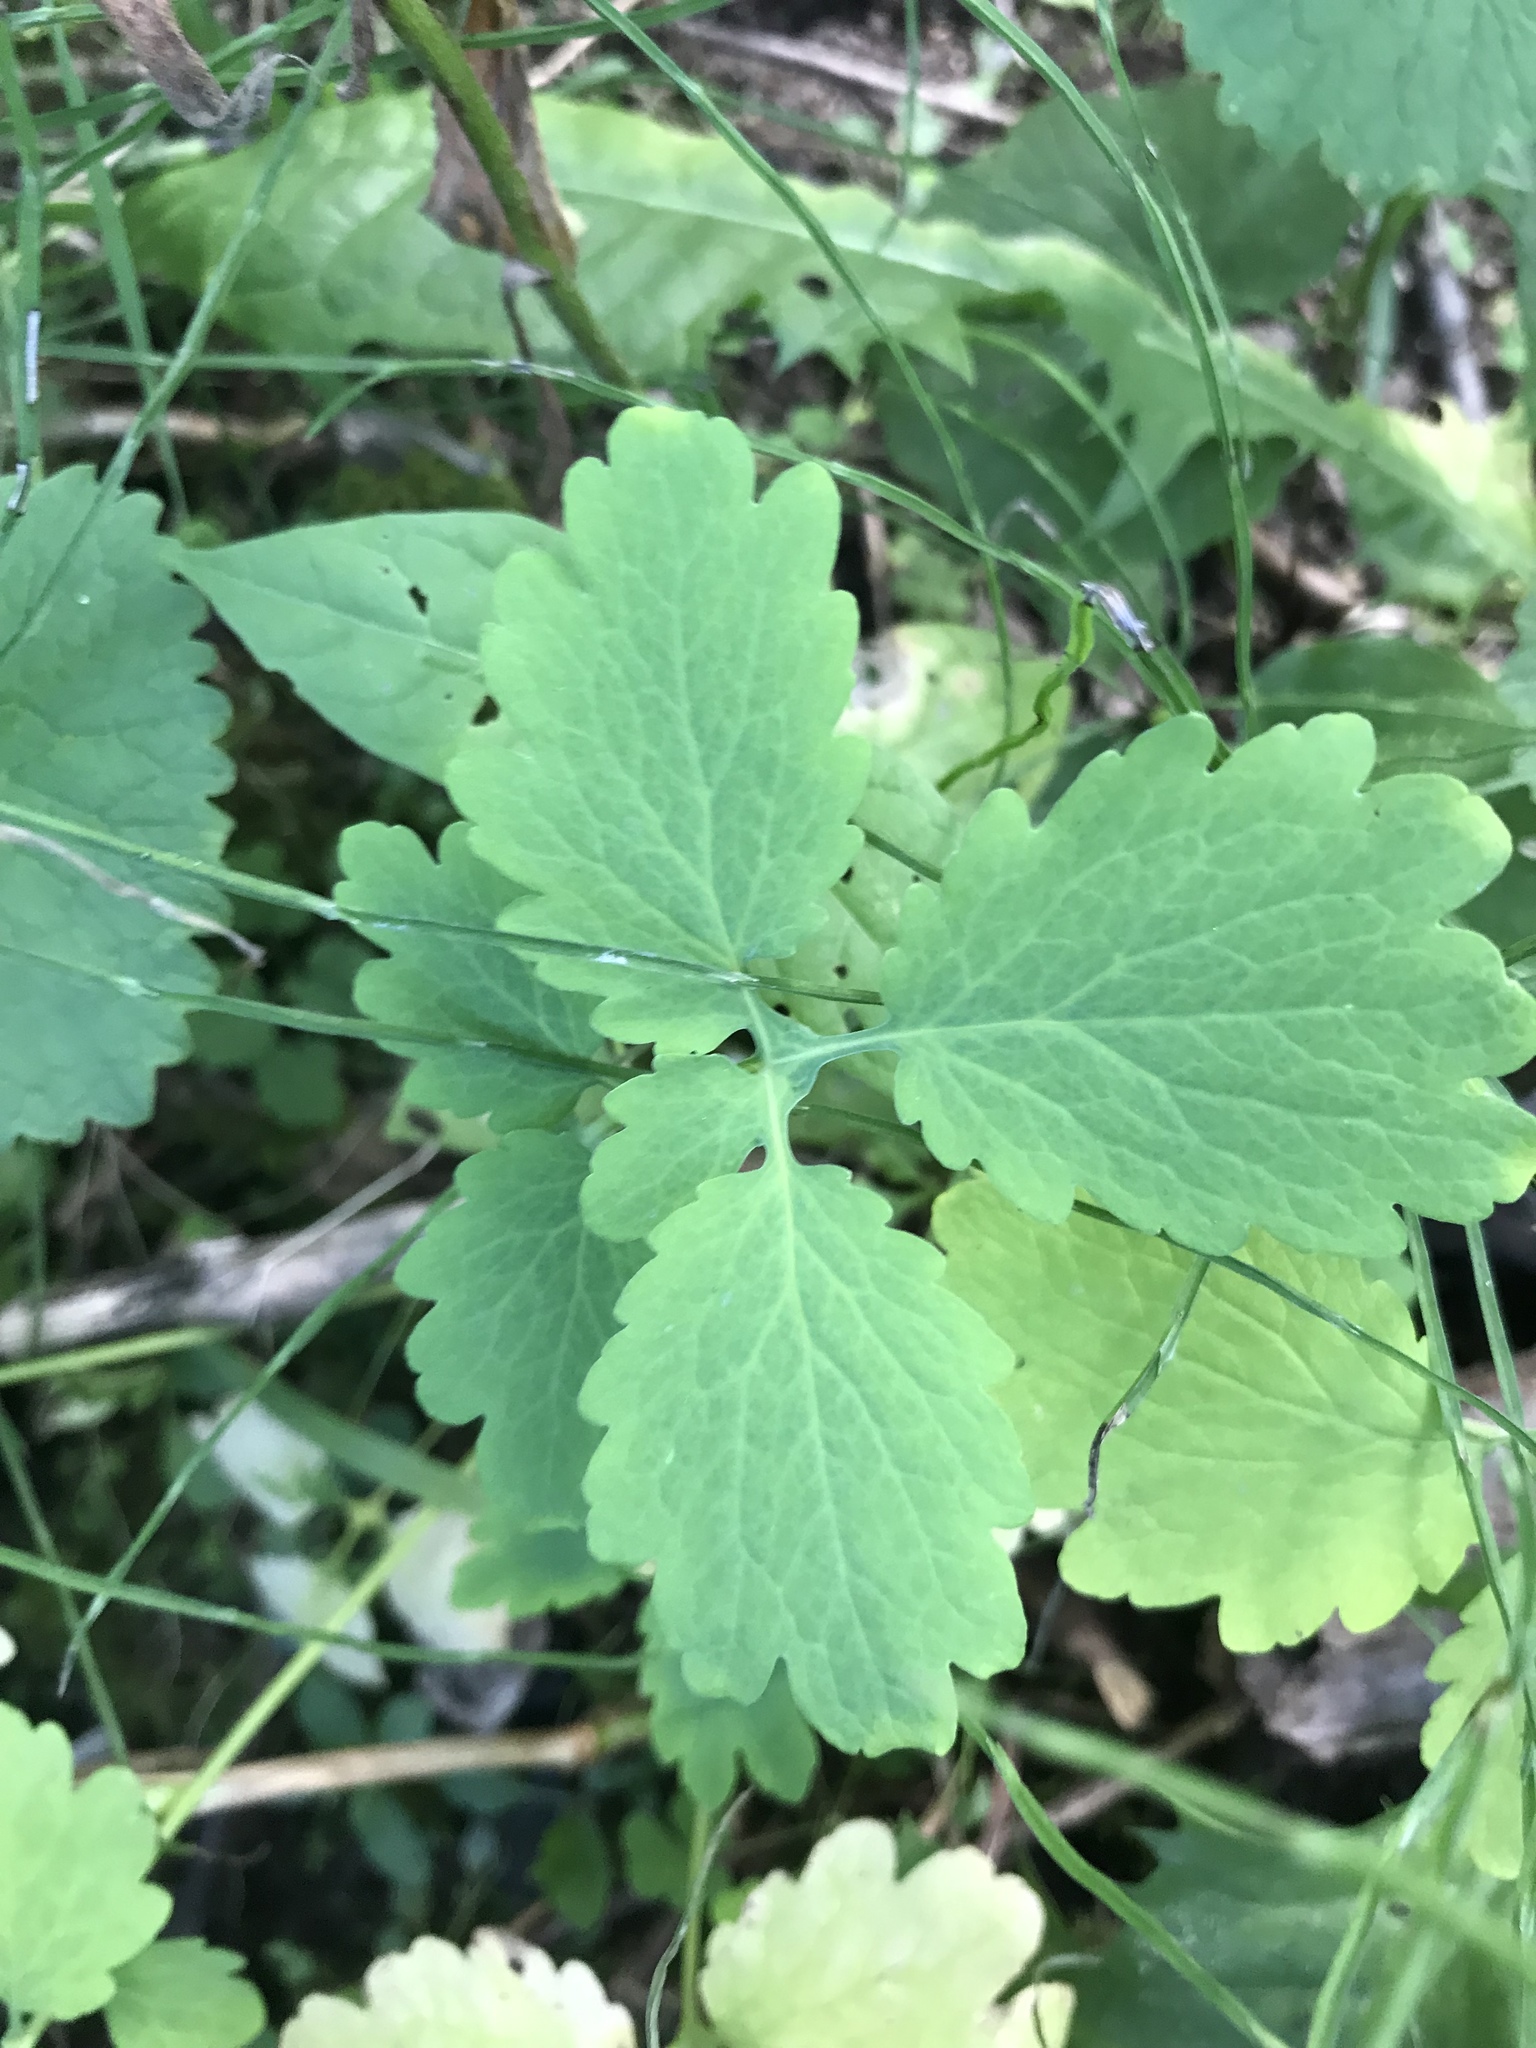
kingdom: Plantae
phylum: Tracheophyta
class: Magnoliopsida
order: Ranunculales
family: Papaveraceae
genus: Chelidonium
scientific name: Chelidonium majus
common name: Greater celandine
